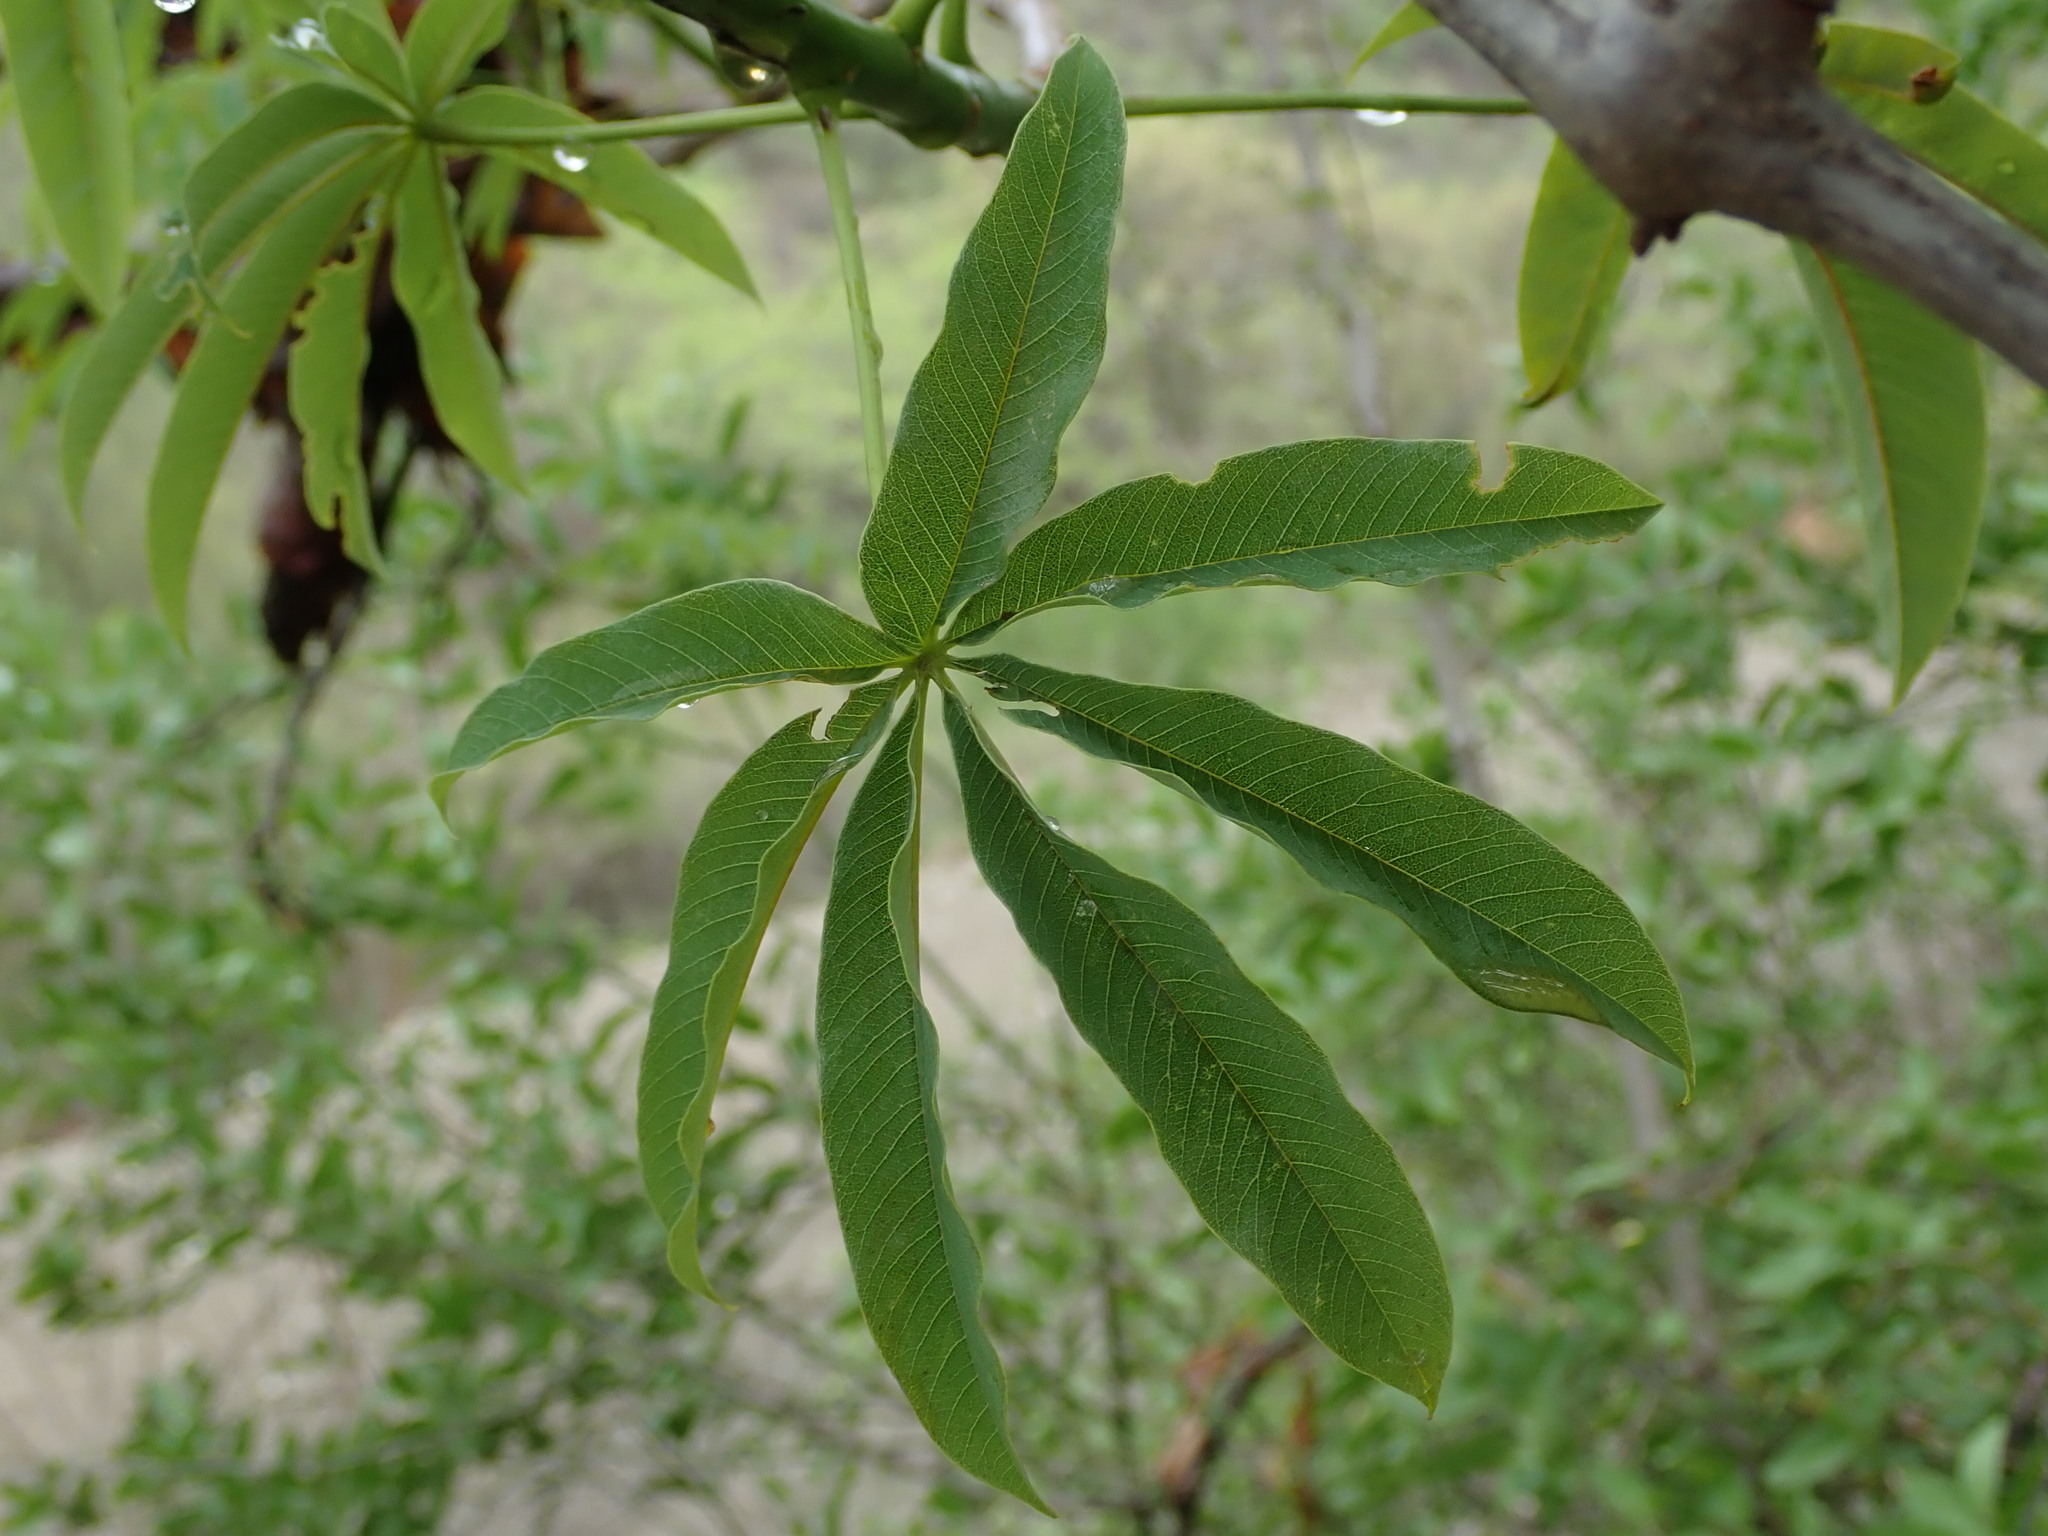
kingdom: Plantae
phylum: Tracheophyta
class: Magnoliopsida
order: Malvales
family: Cochlospermaceae
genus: Cochlospermum
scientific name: Cochlospermum tetraporum
